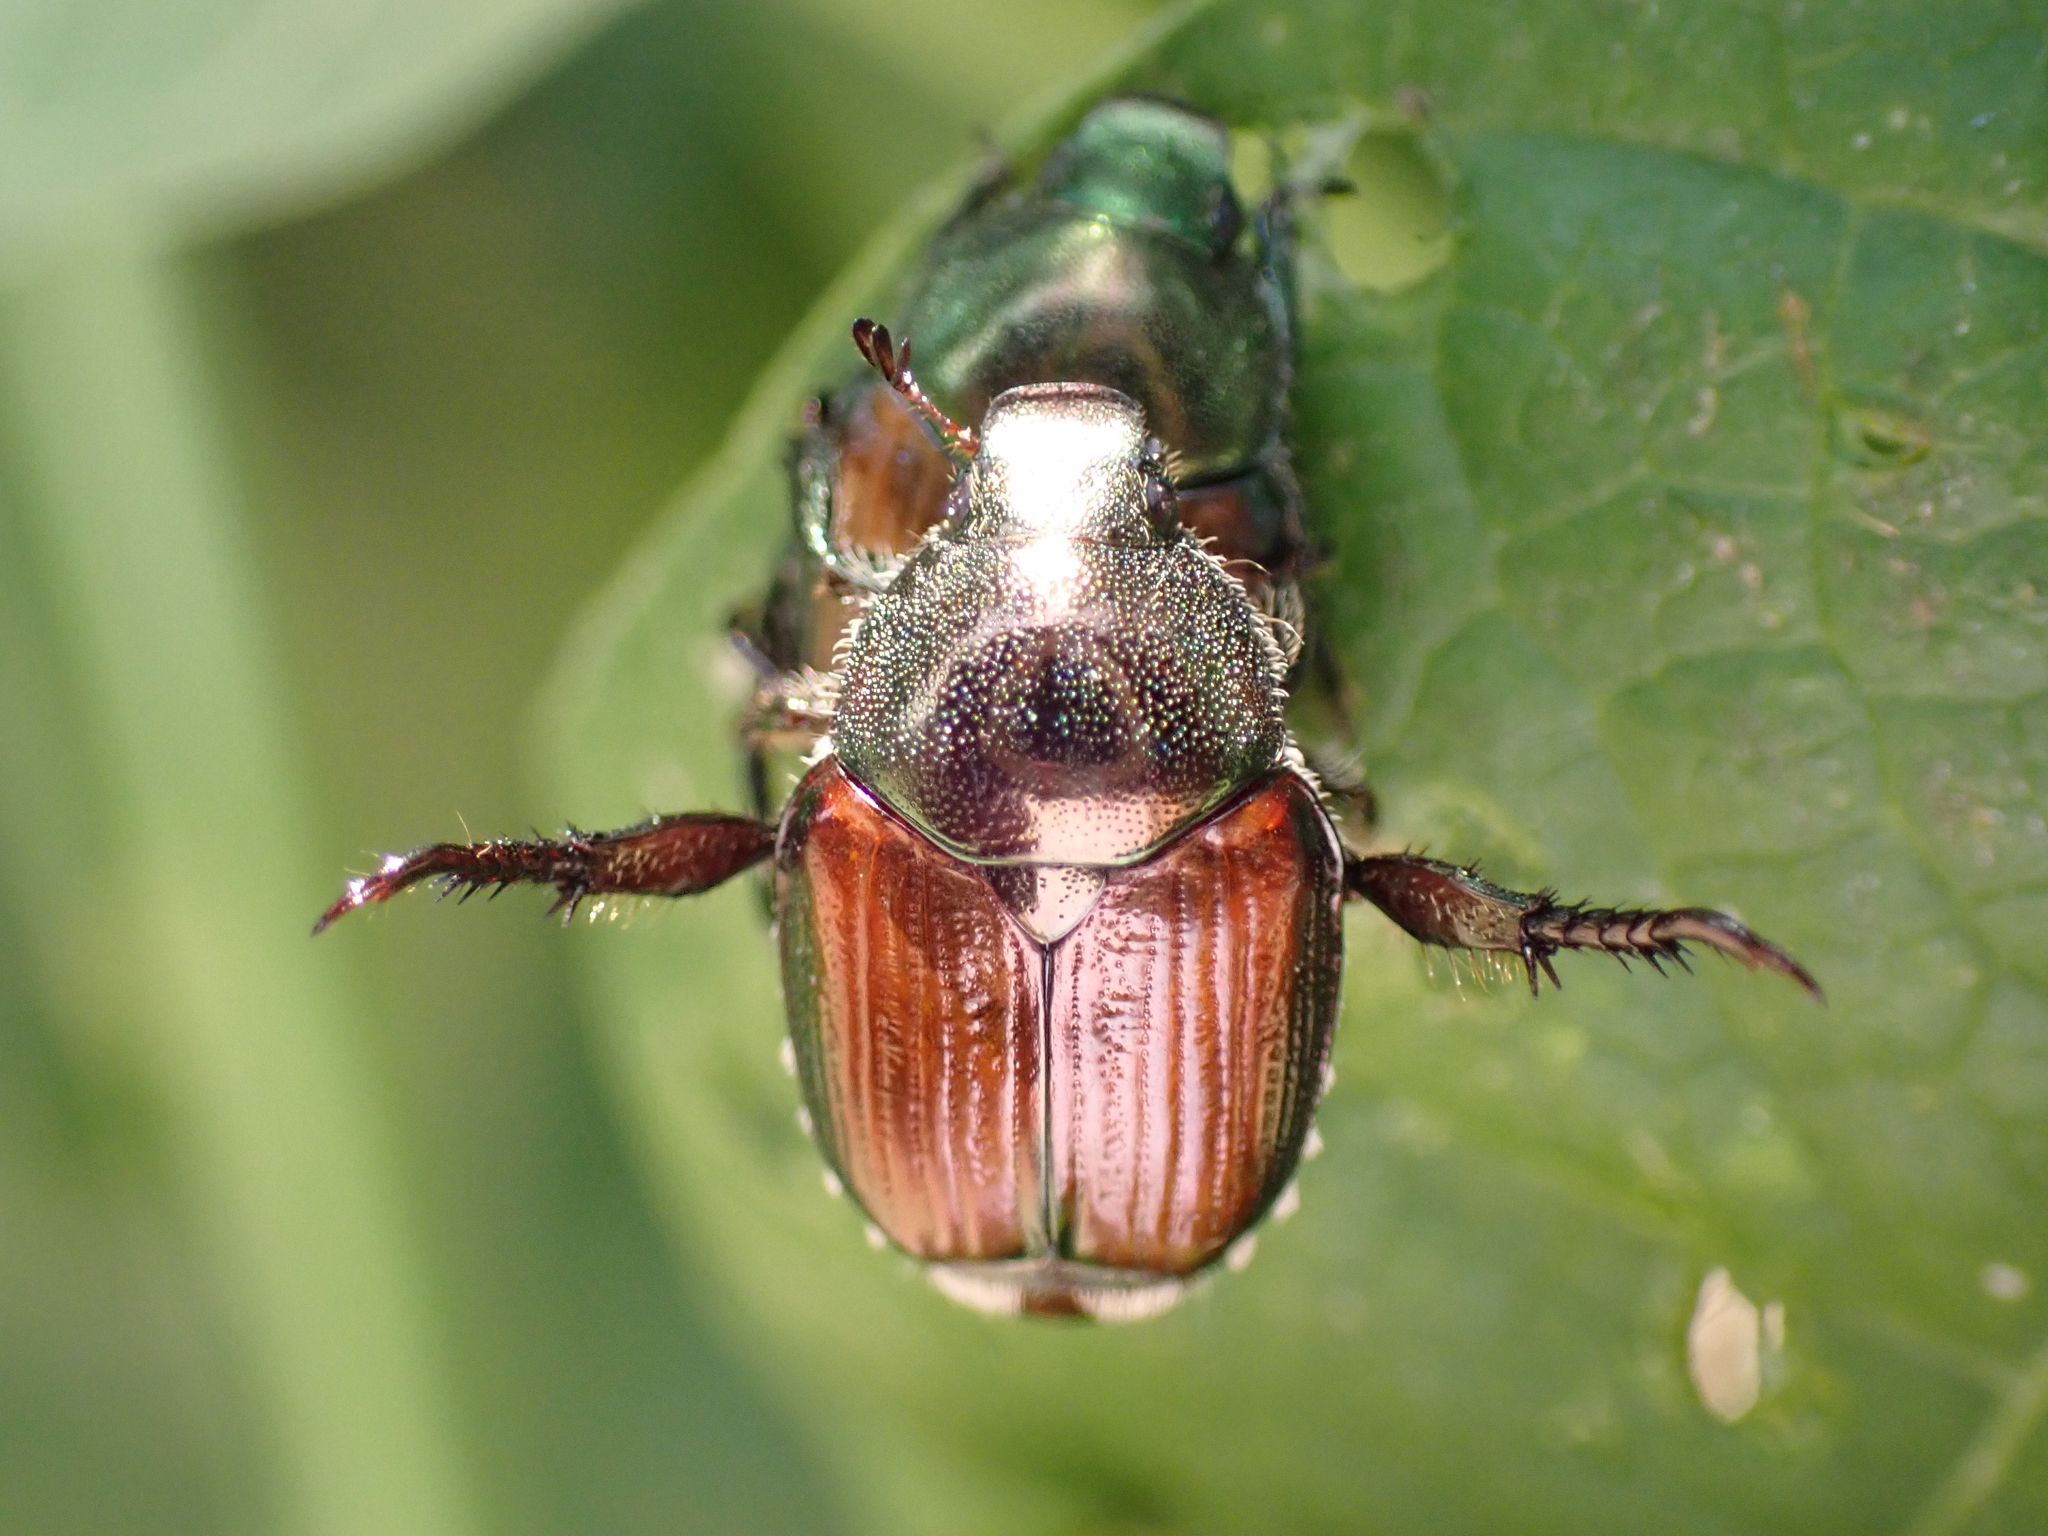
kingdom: Animalia
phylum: Arthropoda
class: Insecta
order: Coleoptera
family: Scarabaeidae
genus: Popillia
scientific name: Popillia japonica
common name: Japanese beetle
